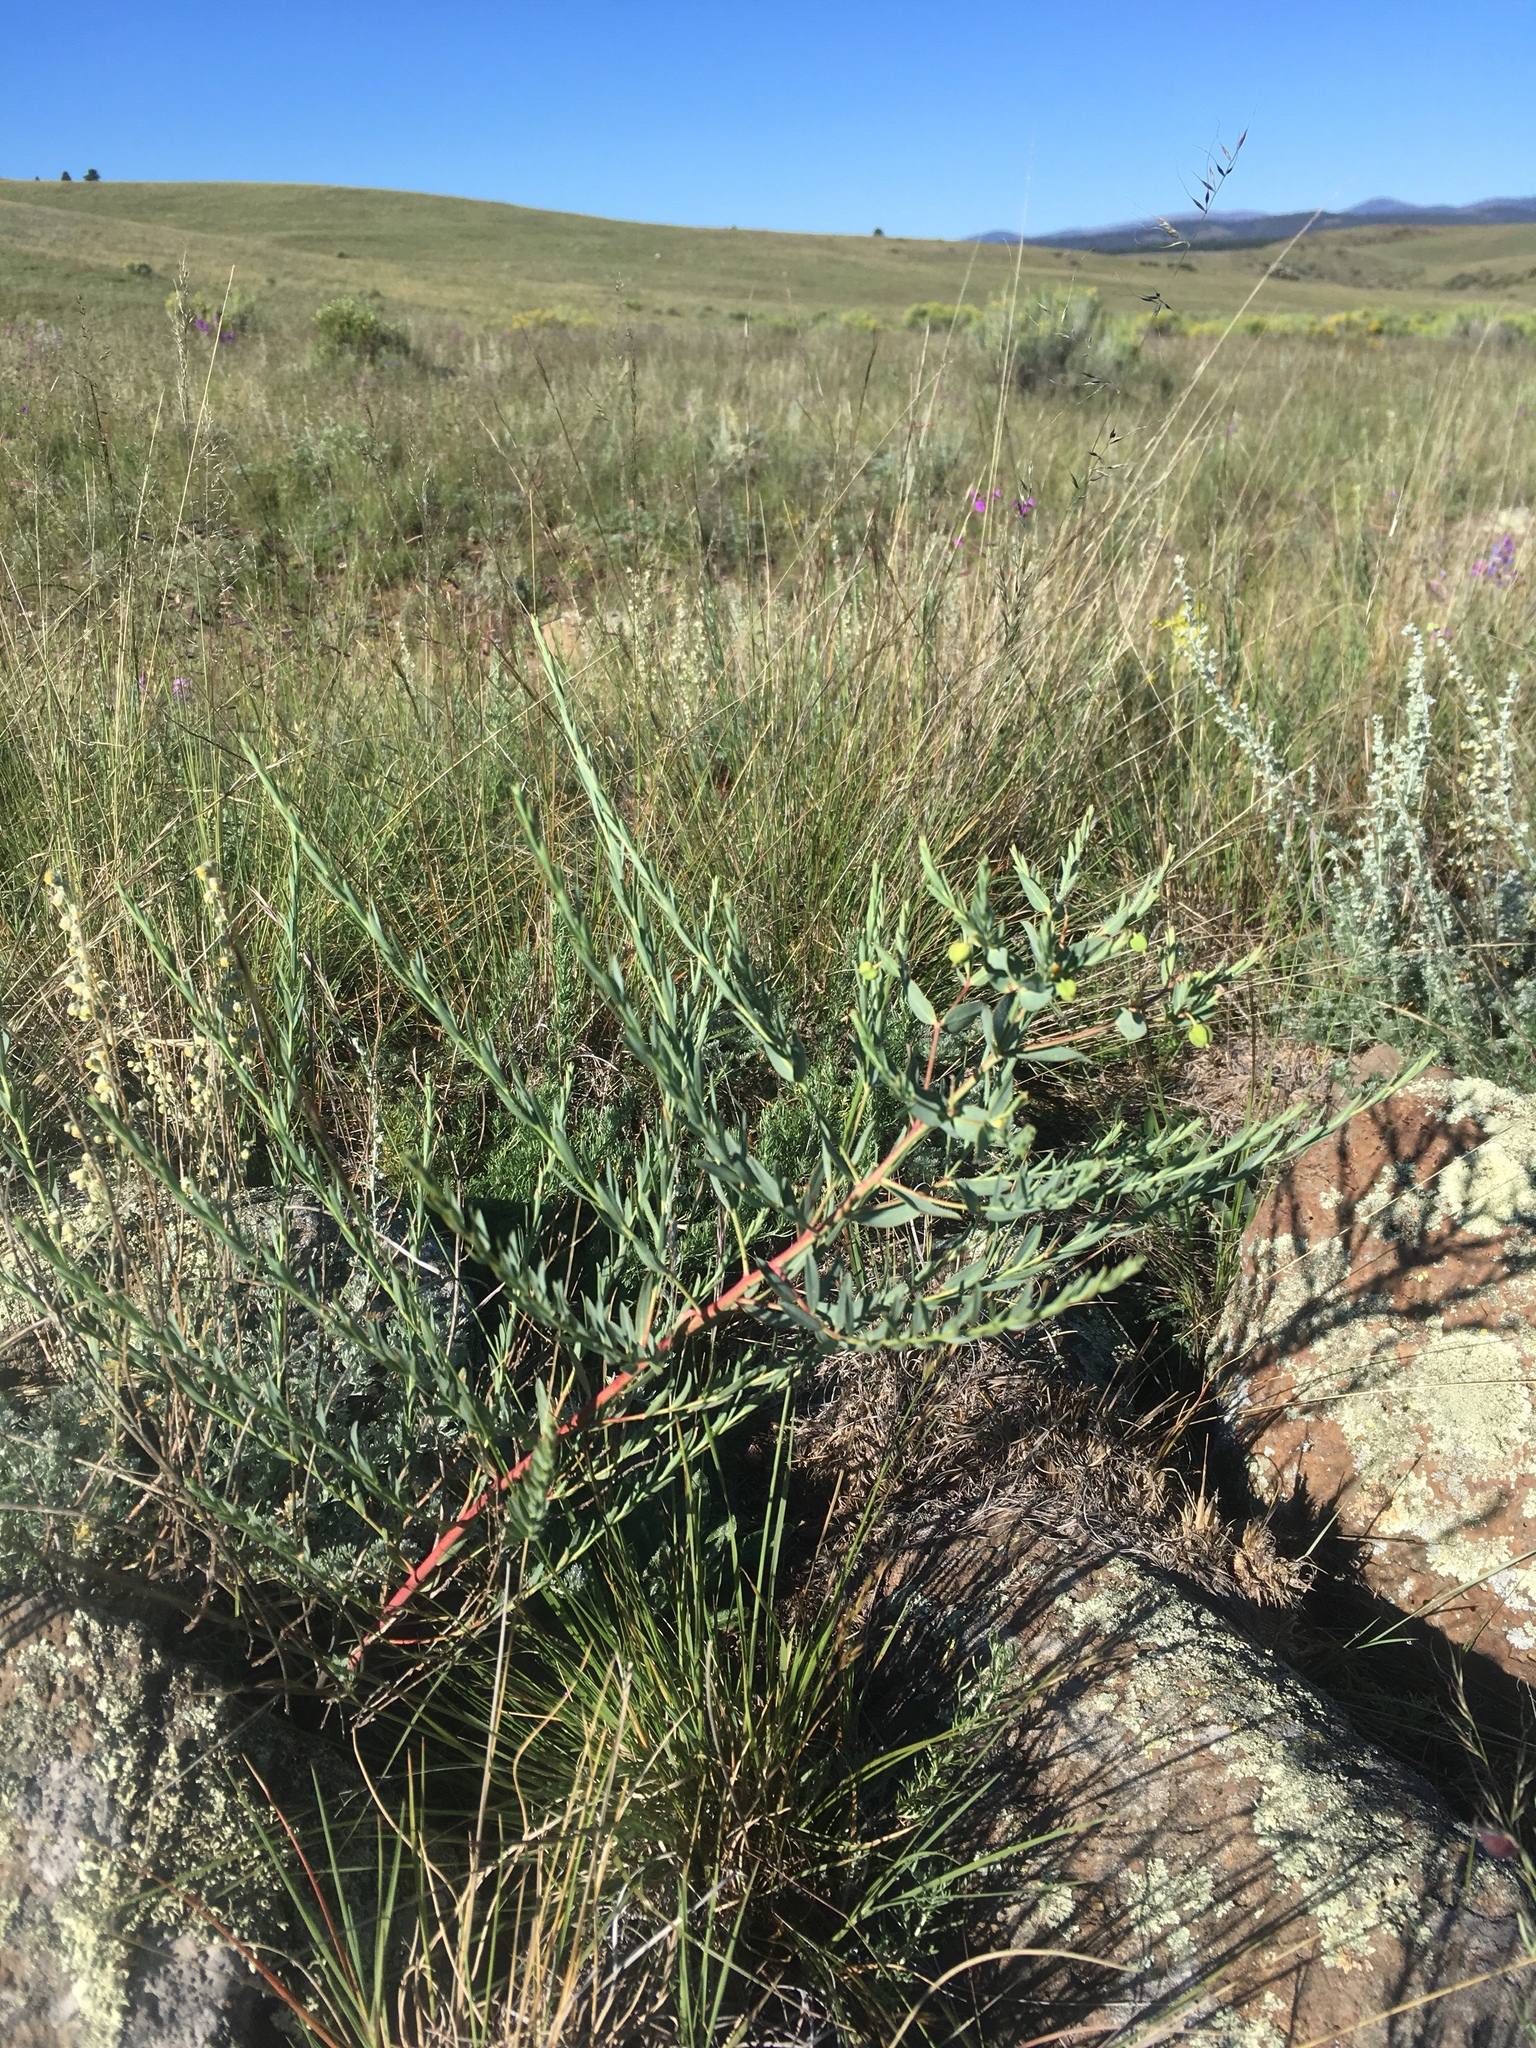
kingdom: Plantae
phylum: Tracheophyta
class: Magnoliopsida
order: Malpighiales
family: Euphorbiaceae
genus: Euphorbia
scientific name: Euphorbia chamaesula
